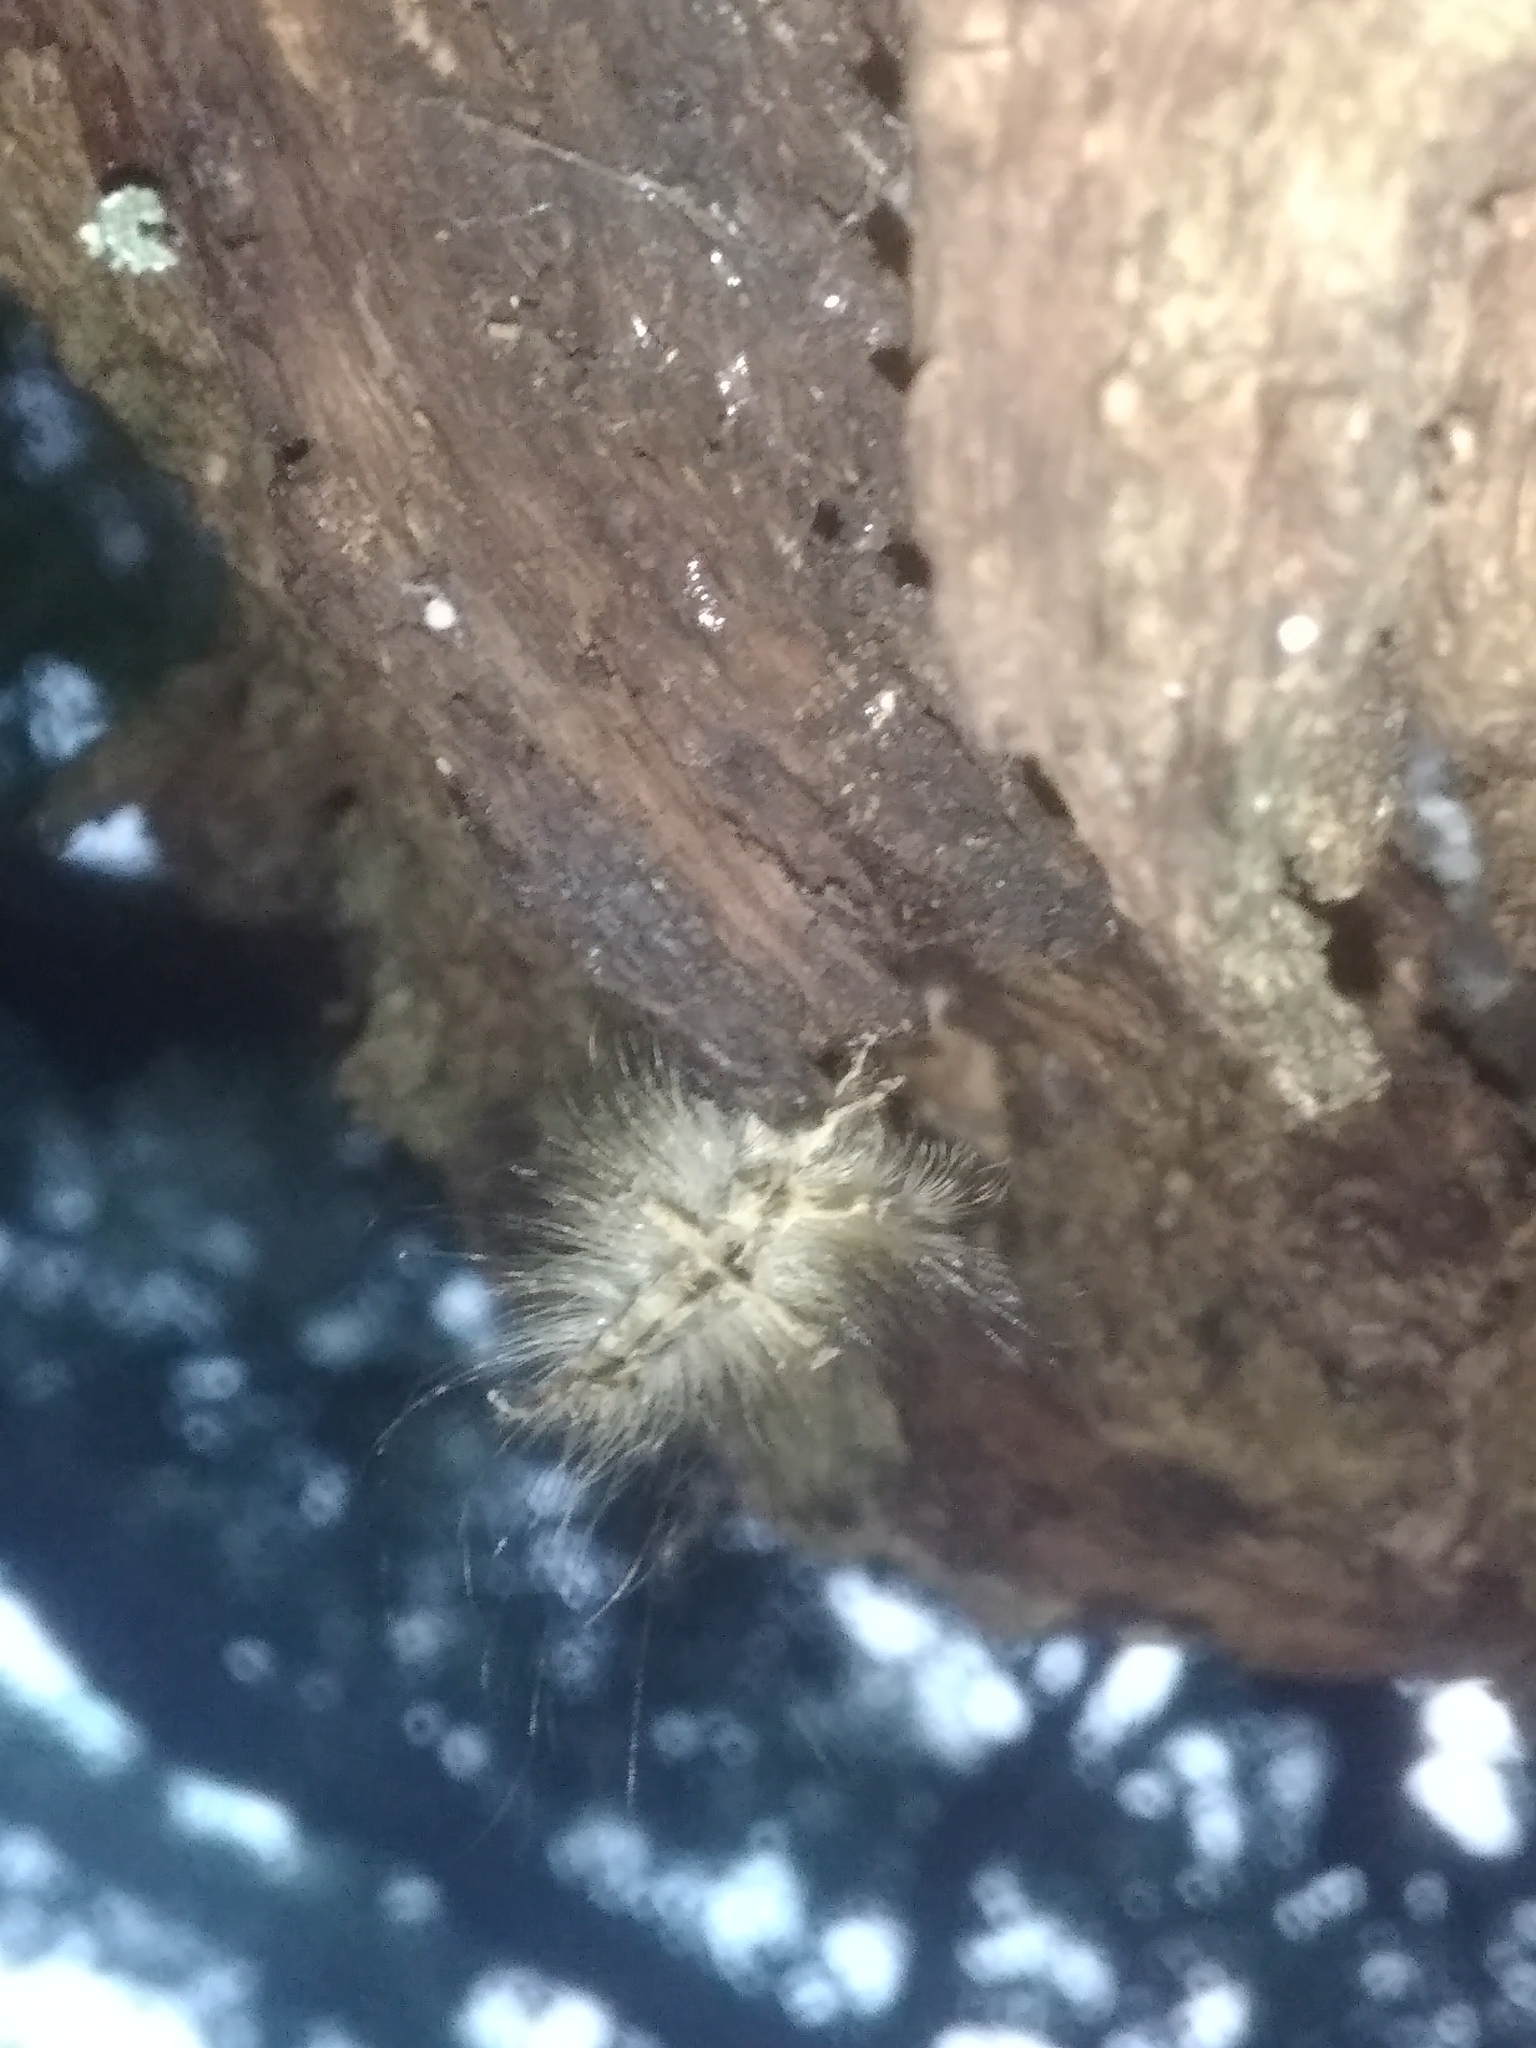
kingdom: Animalia
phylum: Arthropoda
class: Insecta
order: Lepidoptera
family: Erebidae
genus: Lymantria
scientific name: Lymantria dispar
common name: Gypsy moth
